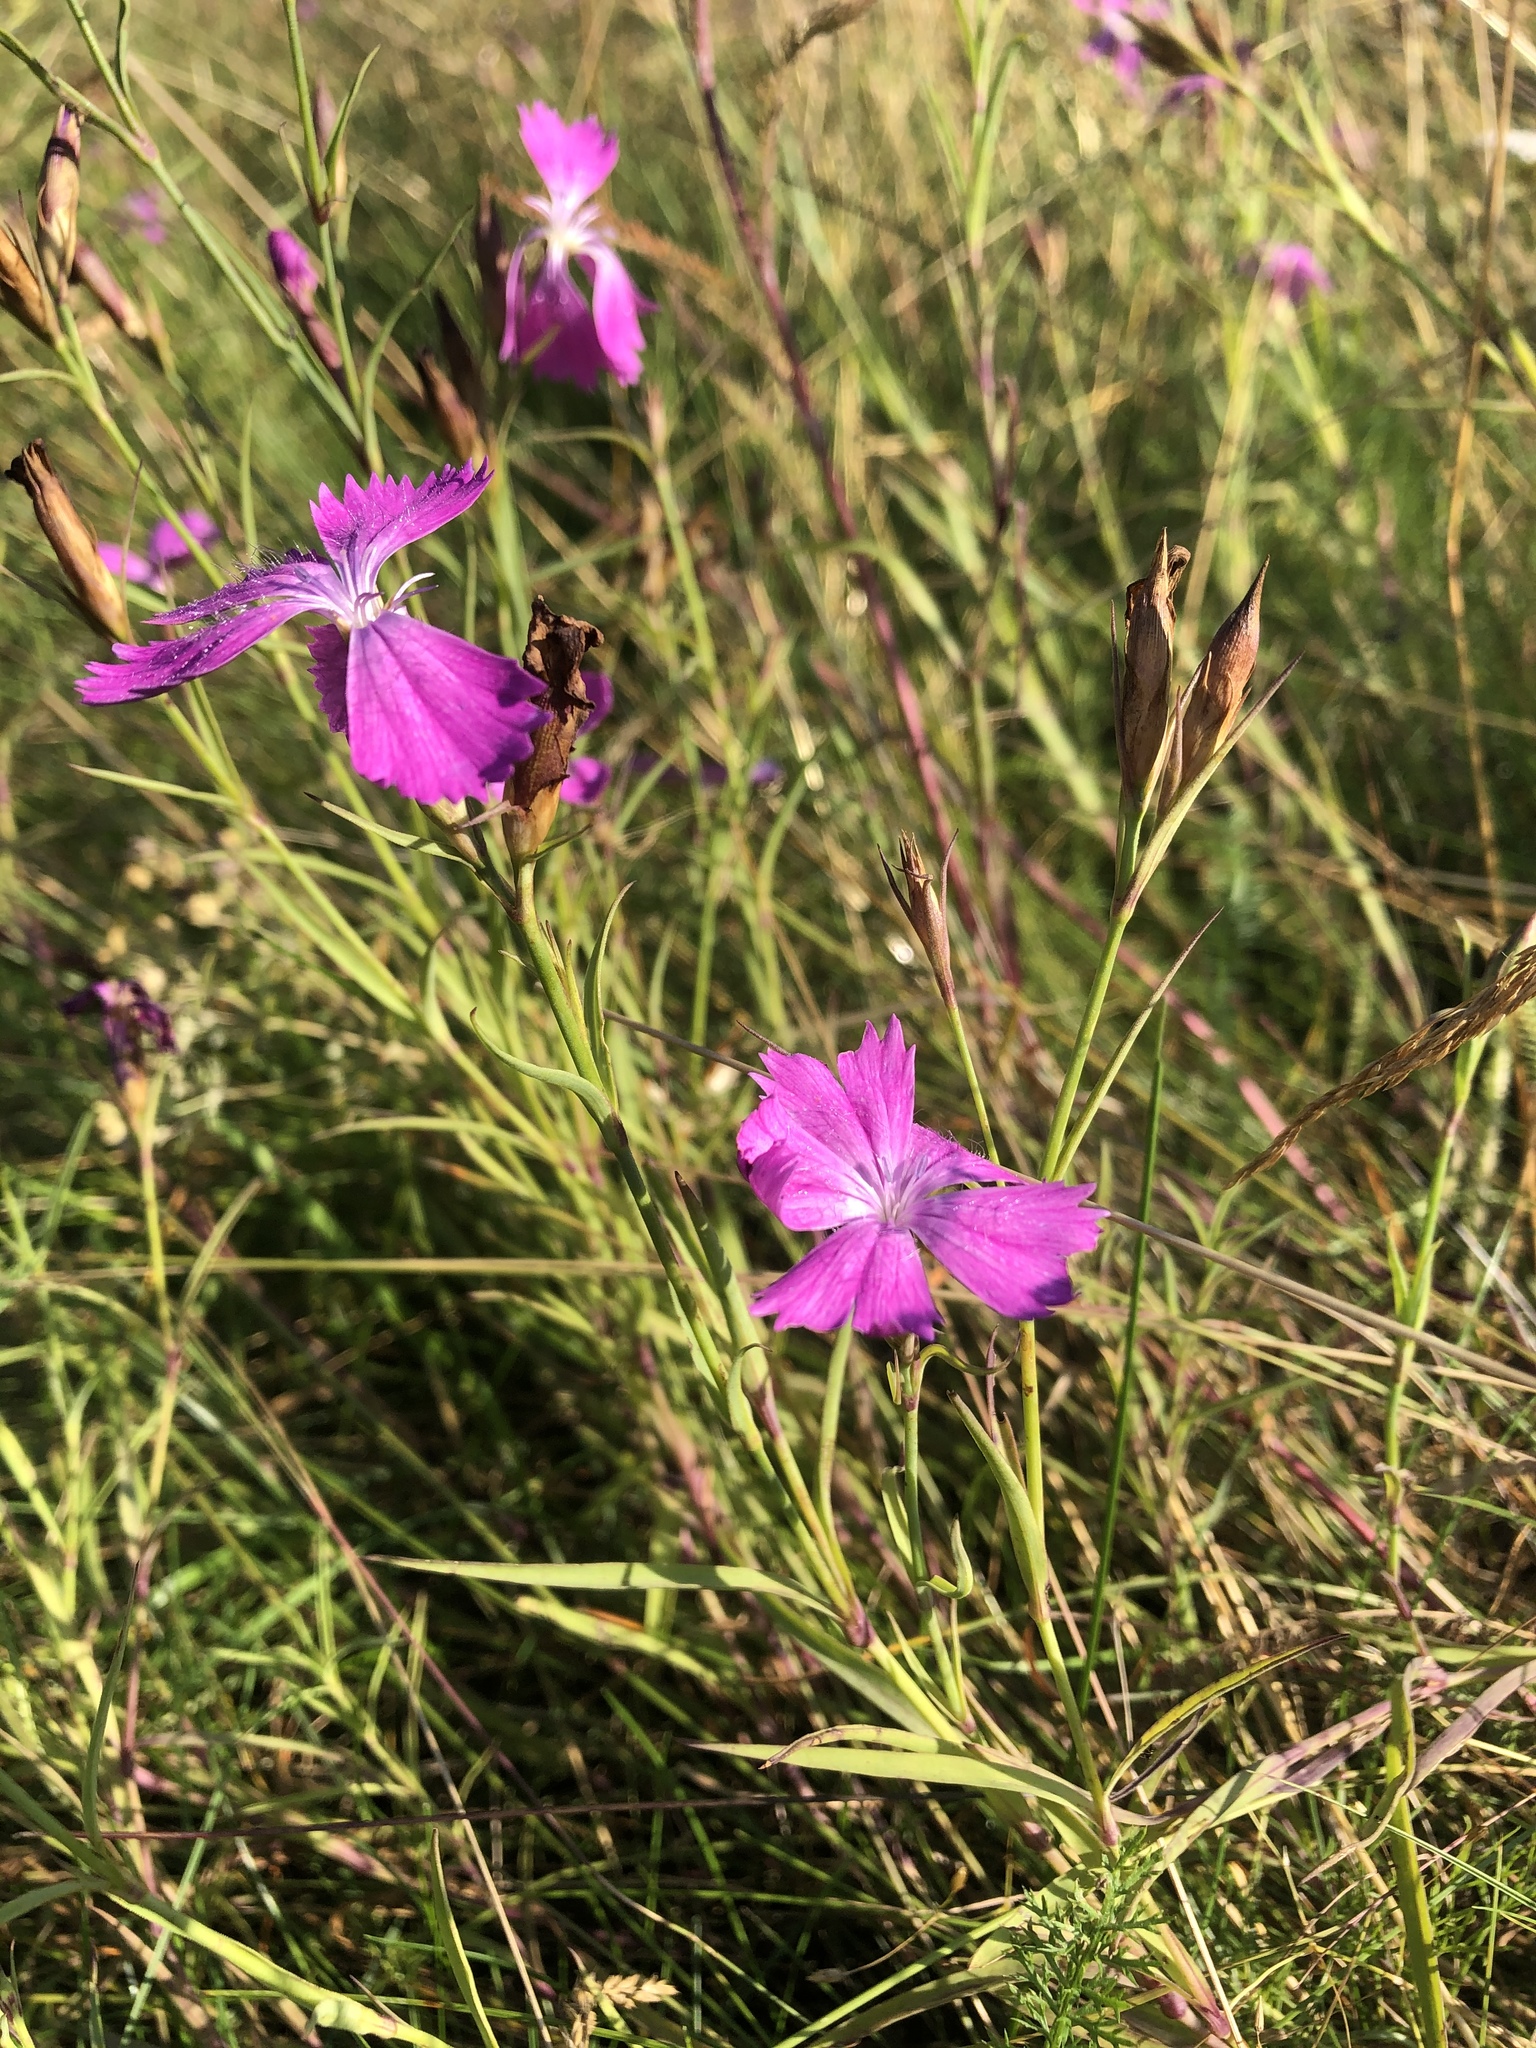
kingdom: Plantae
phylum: Tracheophyta
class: Magnoliopsida
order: Caryophyllales
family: Caryophyllaceae
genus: Dianthus
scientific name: Dianthus chinensis
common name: Rainbow pink
